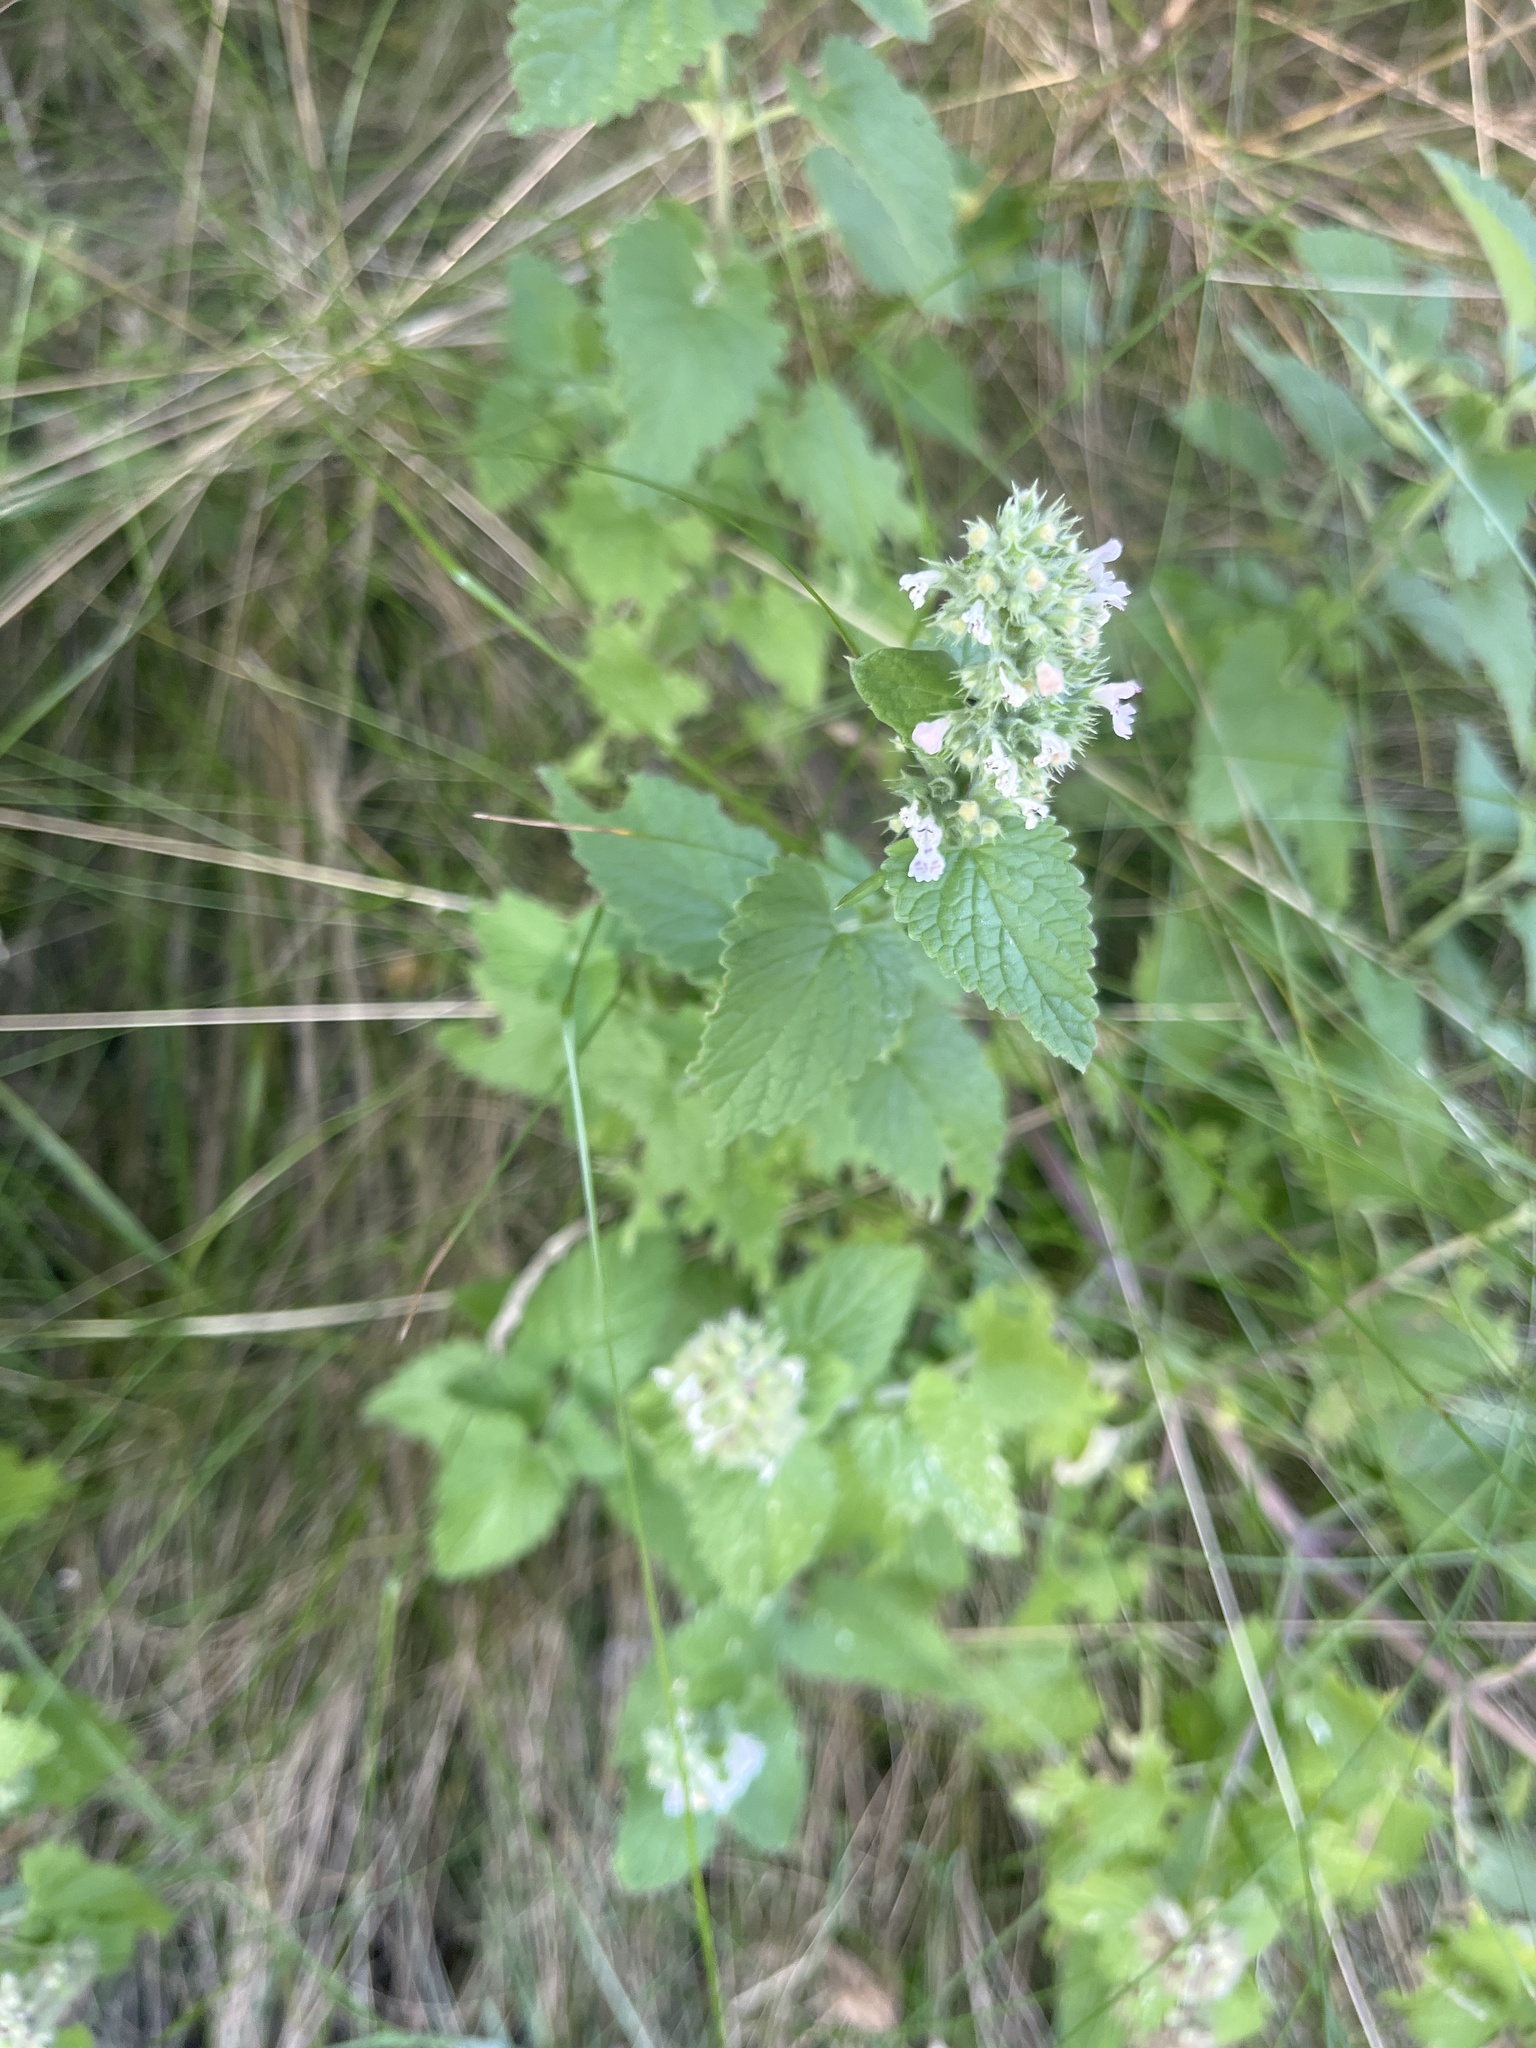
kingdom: Plantae
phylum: Tracheophyta
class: Magnoliopsida
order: Lamiales
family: Lamiaceae
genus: Nepeta
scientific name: Nepeta cataria
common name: Catnip
